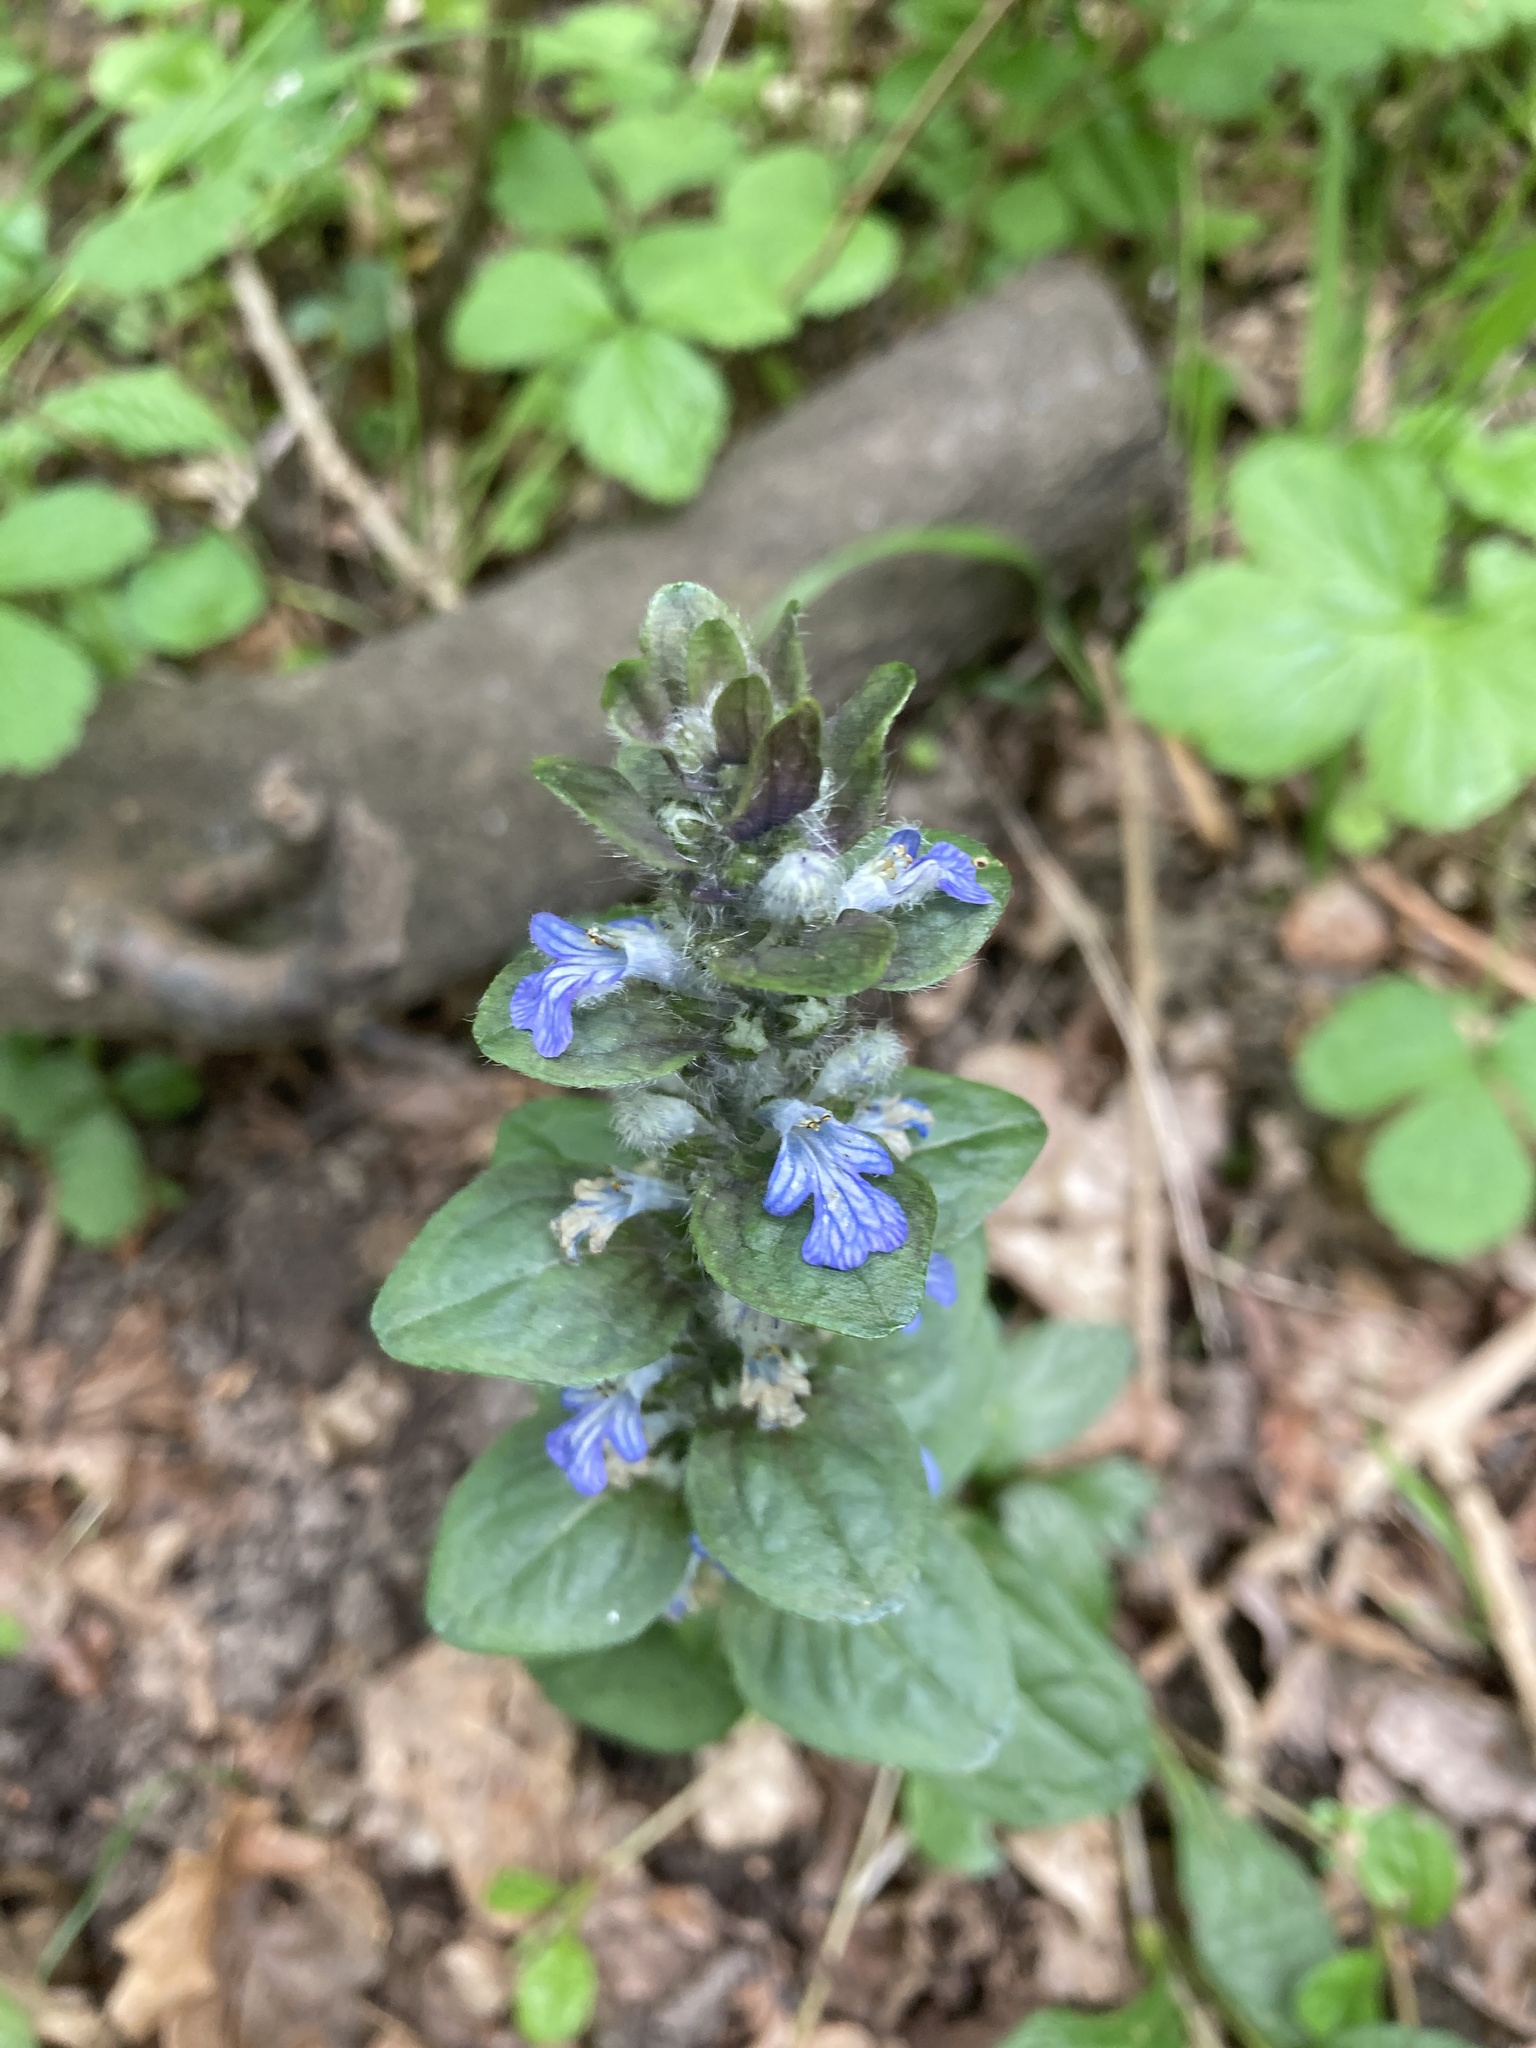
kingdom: Plantae
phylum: Tracheophyta
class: Magnoliopsida
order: Lamiales
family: Lamiaceae
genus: Ajuga
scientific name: Ajuga reptans
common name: Bugle
